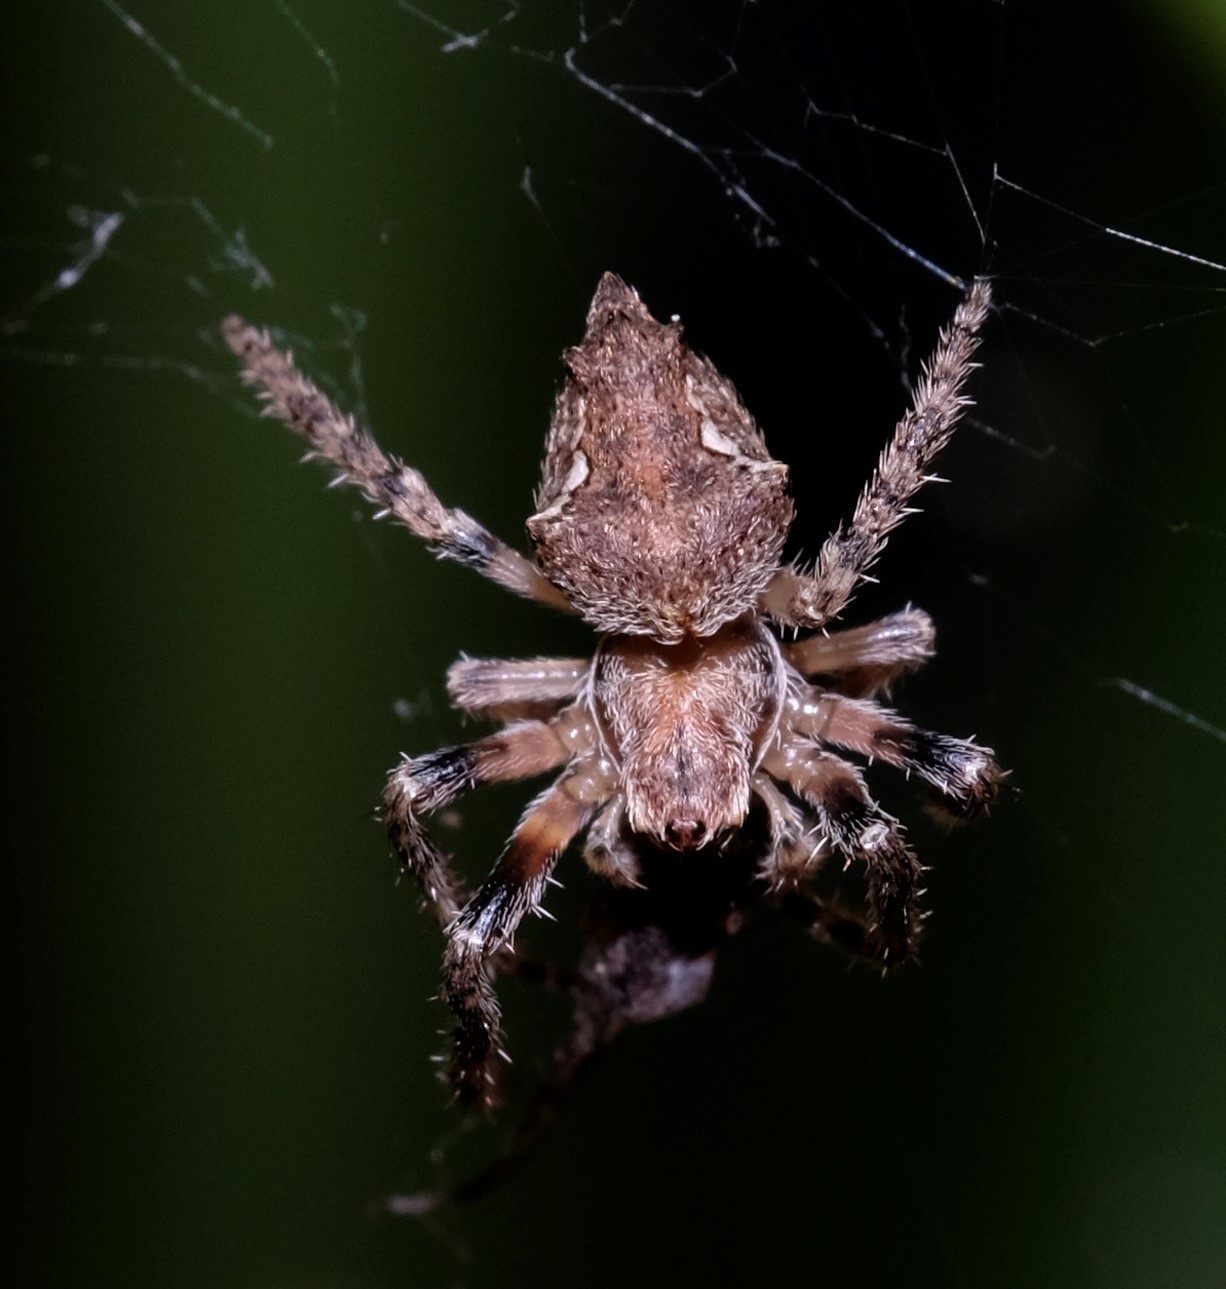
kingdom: Animalia
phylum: Arthropoda
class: Arachnida
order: Araneae
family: Araneidae
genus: Eriophora
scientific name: Eriophora pustulosa
